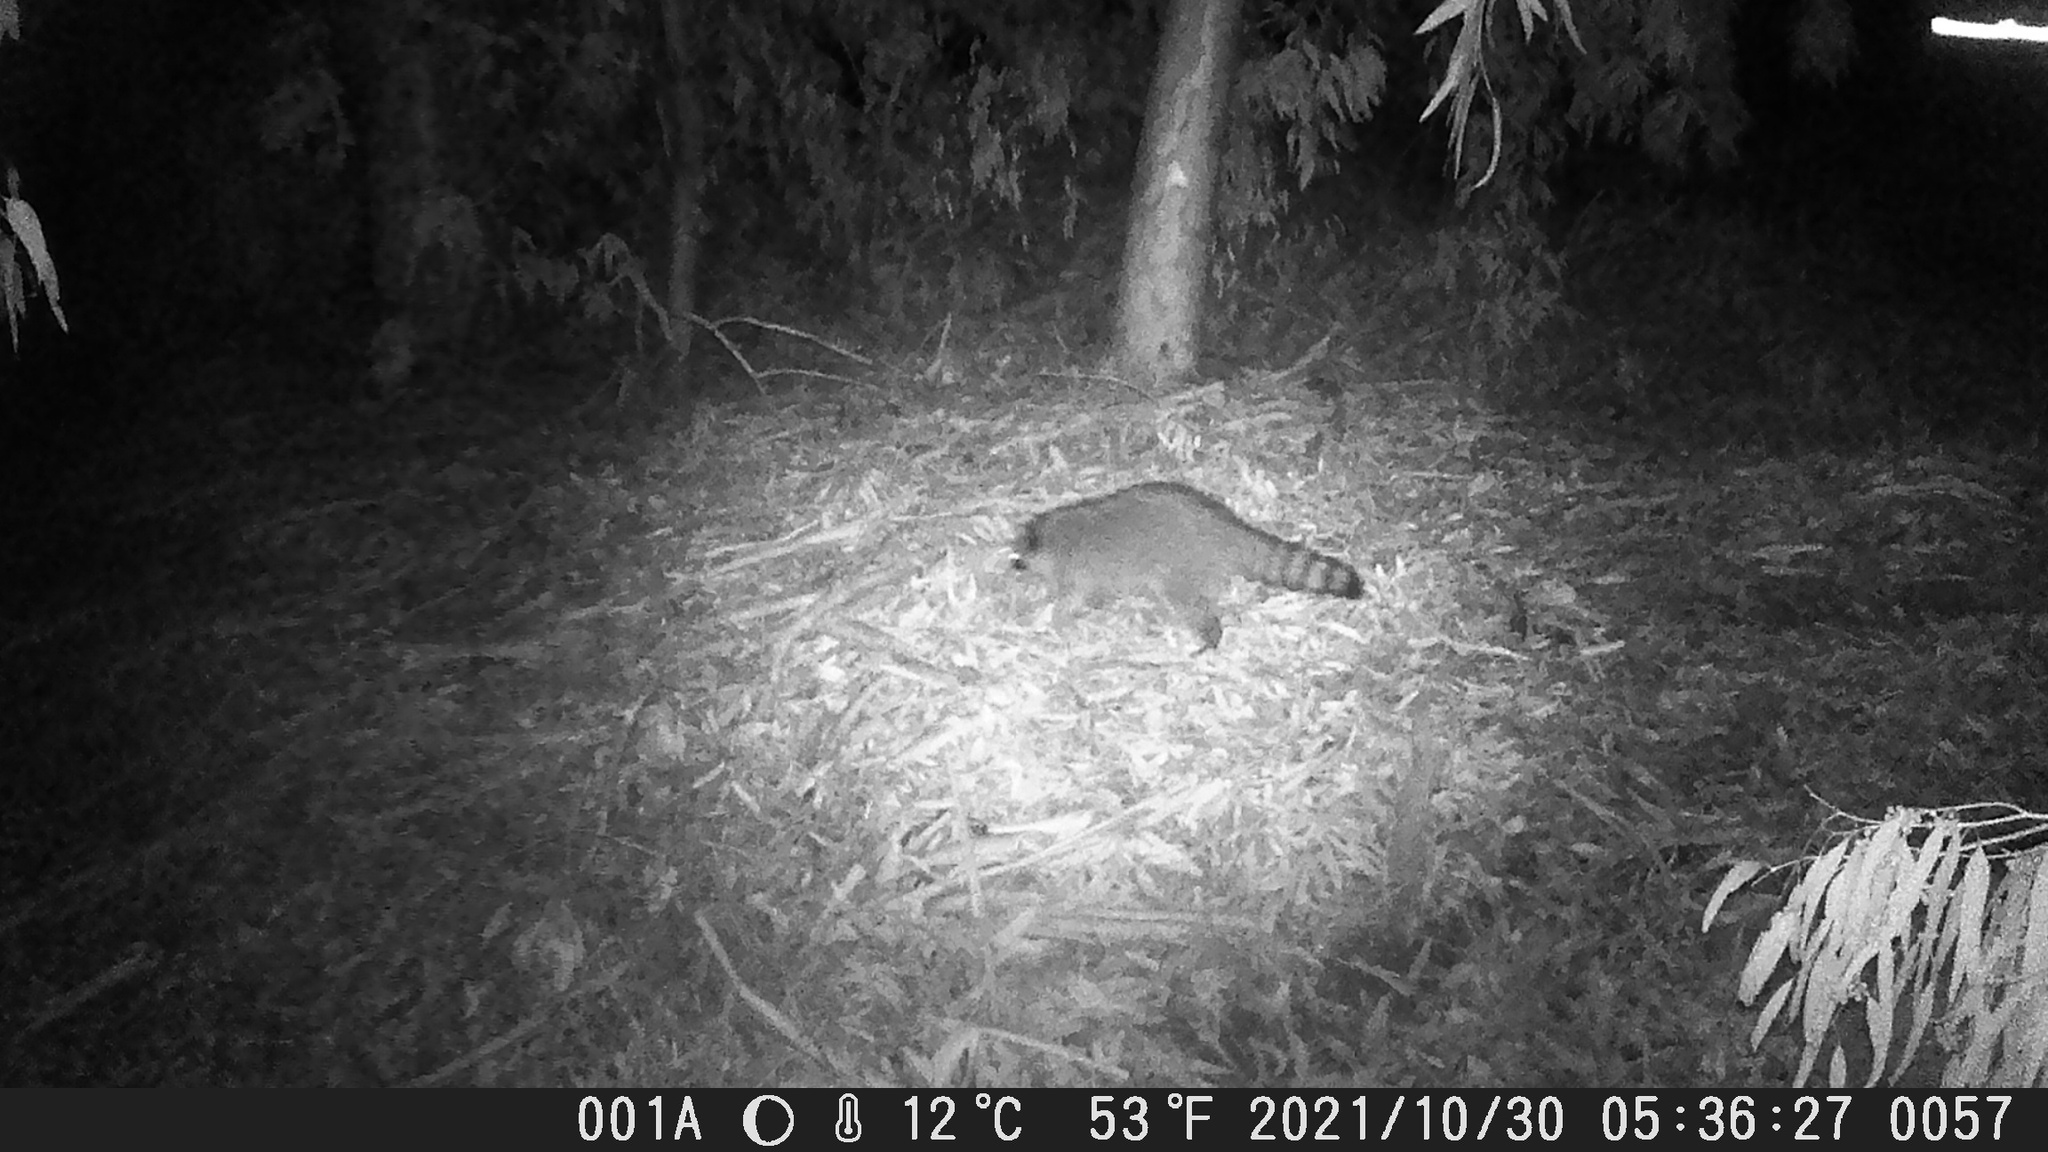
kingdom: Animalia
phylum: Chordata
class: Mammalia
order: Carnivora
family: Procyonidae
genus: Procyon
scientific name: Procyon lotor
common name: Raccoon
